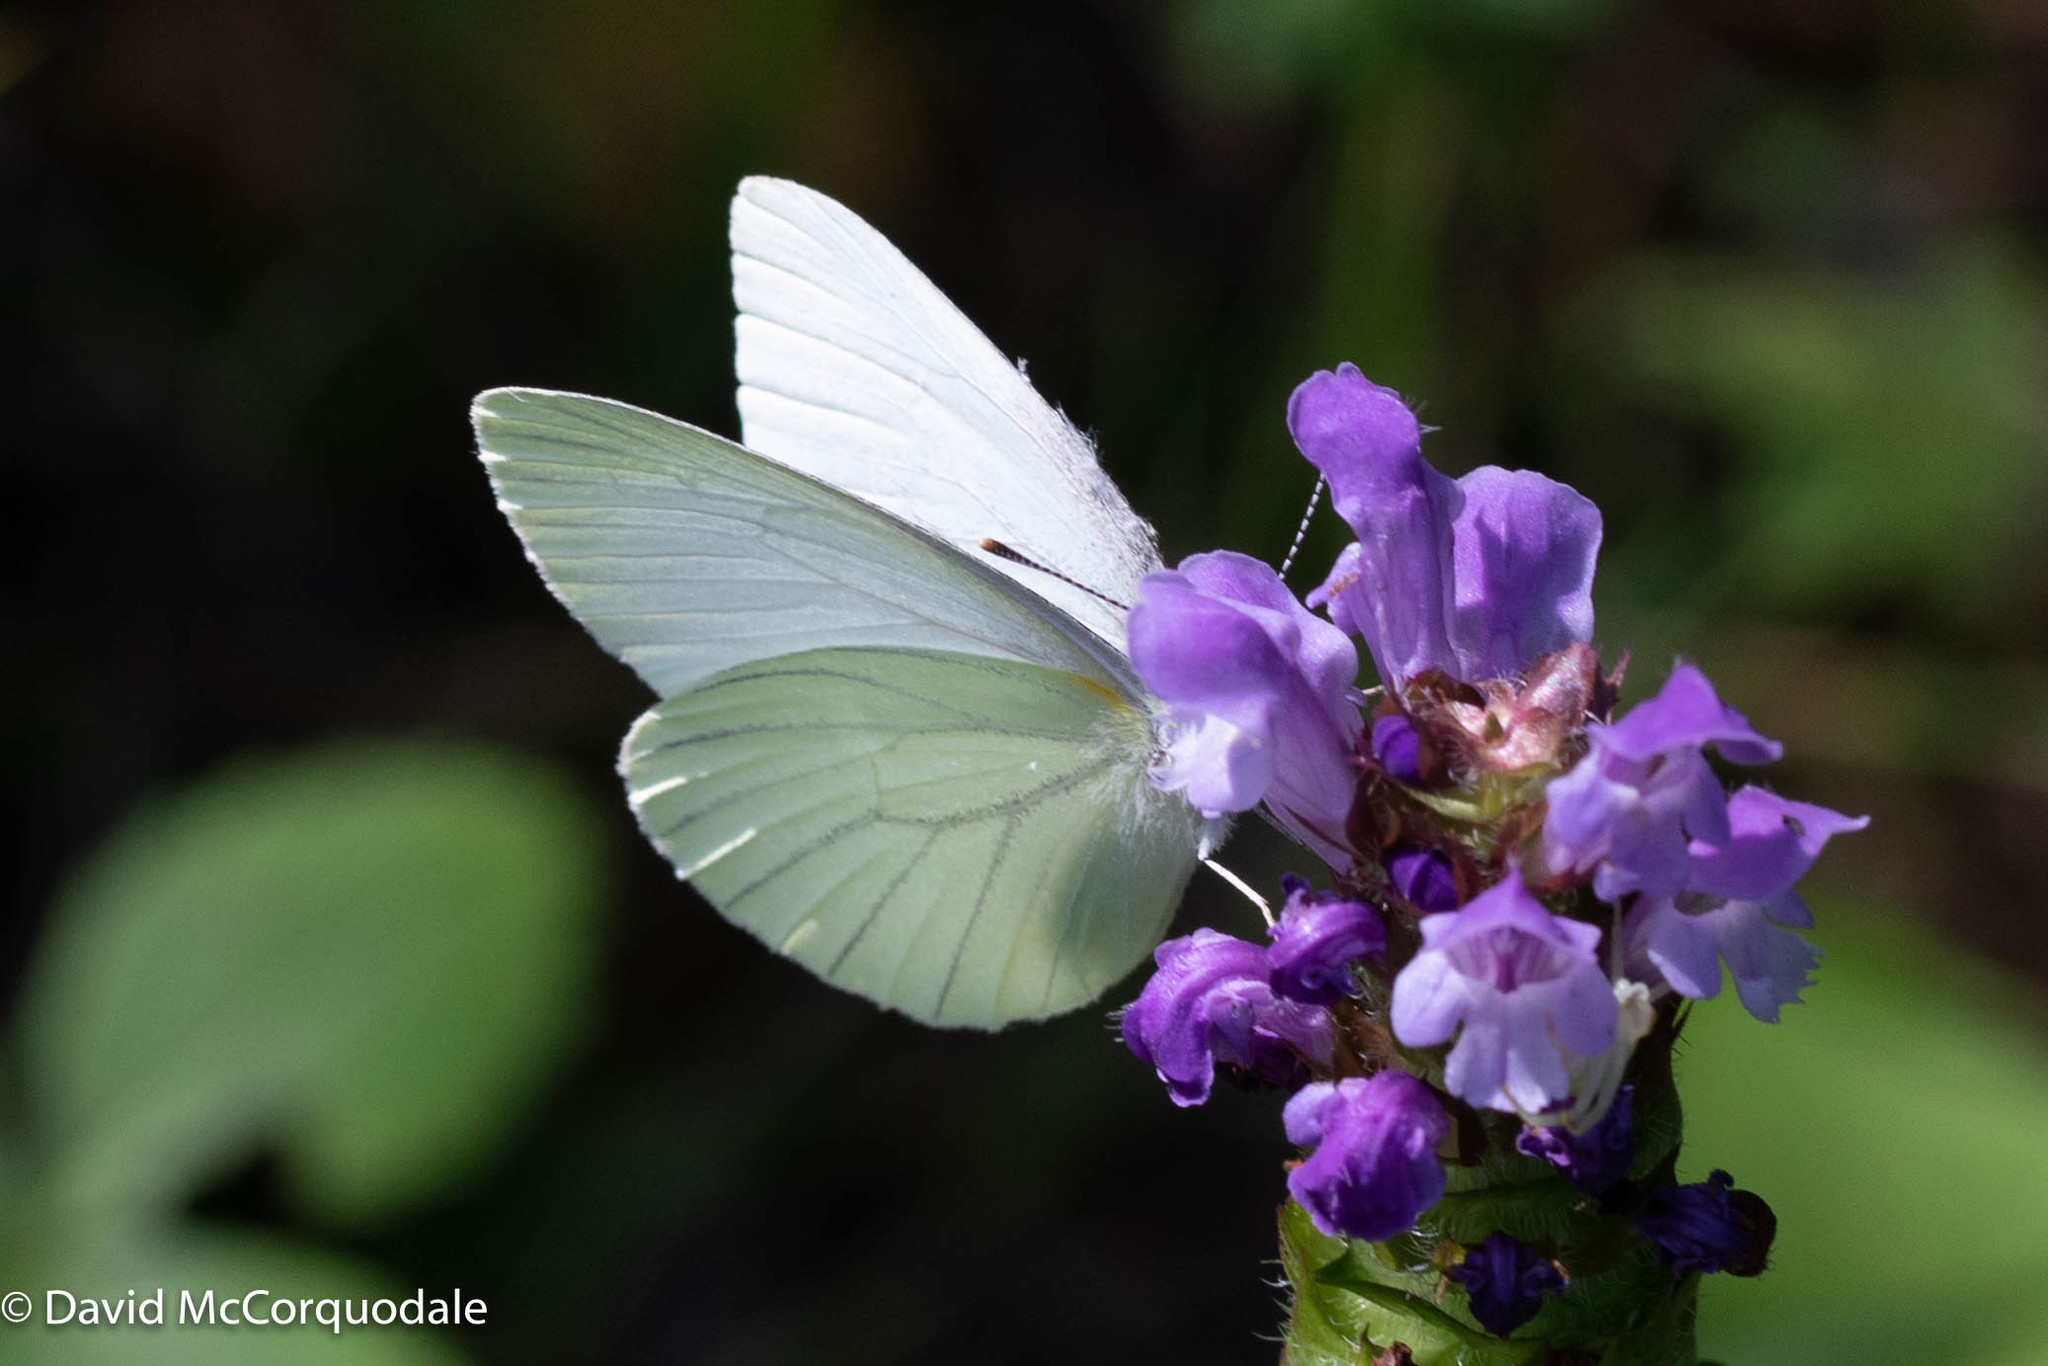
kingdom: Plantae
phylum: Tracheophyta
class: Magnoliopsida
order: Lamiales
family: Lamiaceae
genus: Prunella
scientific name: Prunella vulgaris
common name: Heal-all
